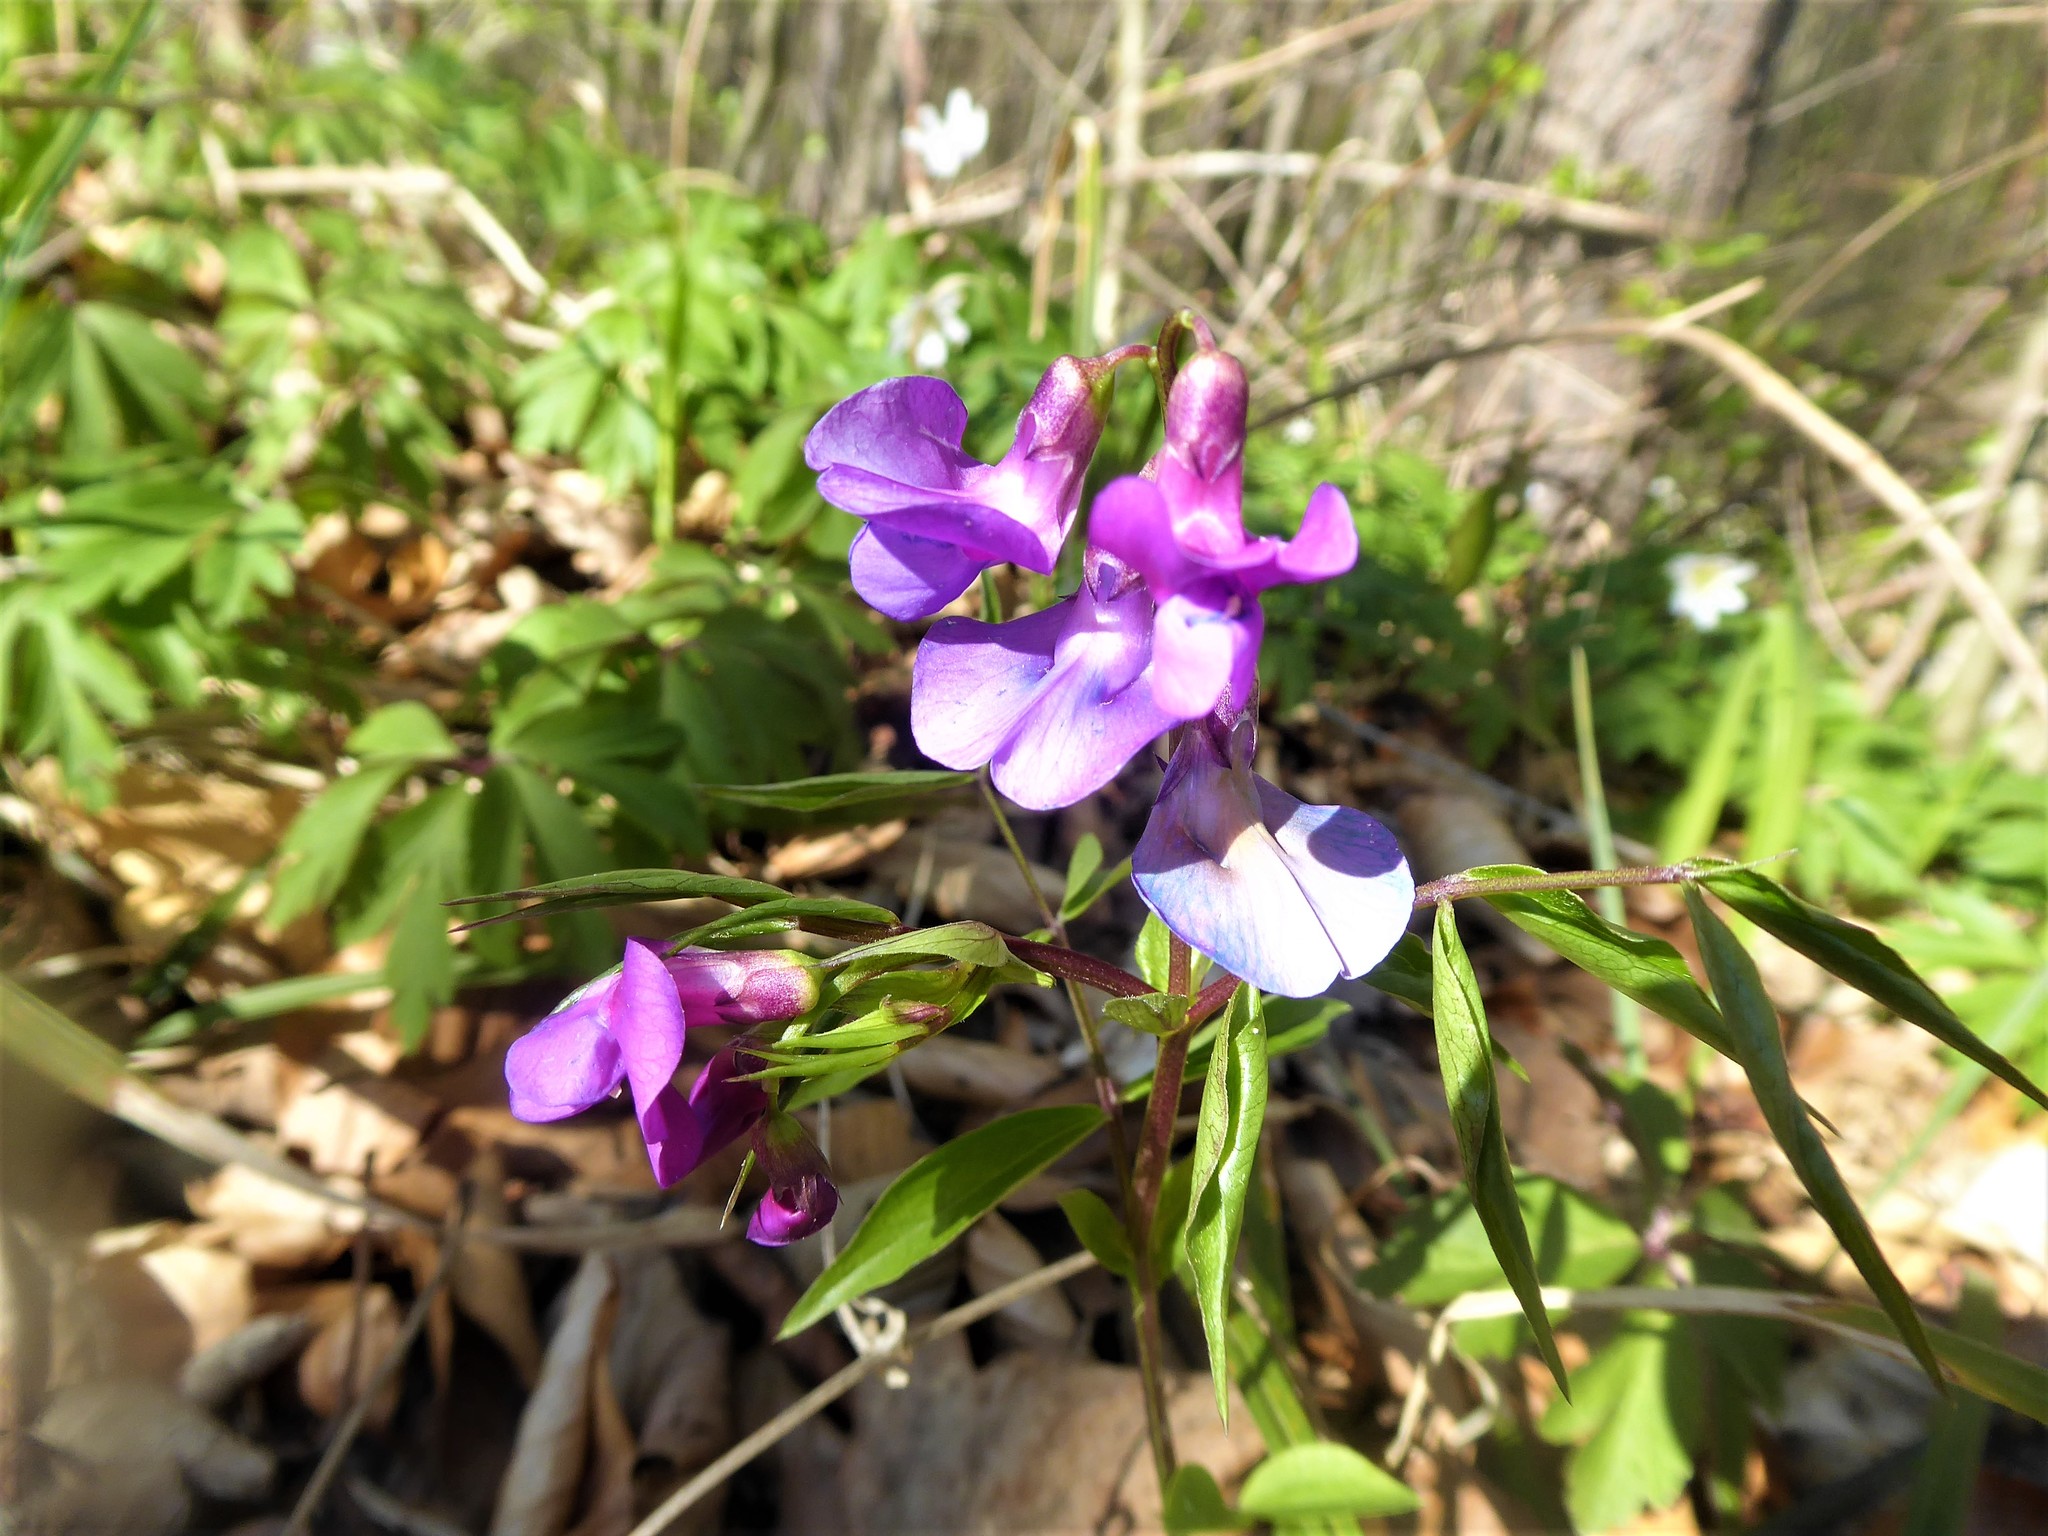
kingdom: Plantae
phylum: Tracheophyta
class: Magnoliopsida
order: Fabales
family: Fabaceae
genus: Lathyrus
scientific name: Lathyrus vernus
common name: Spring pea
